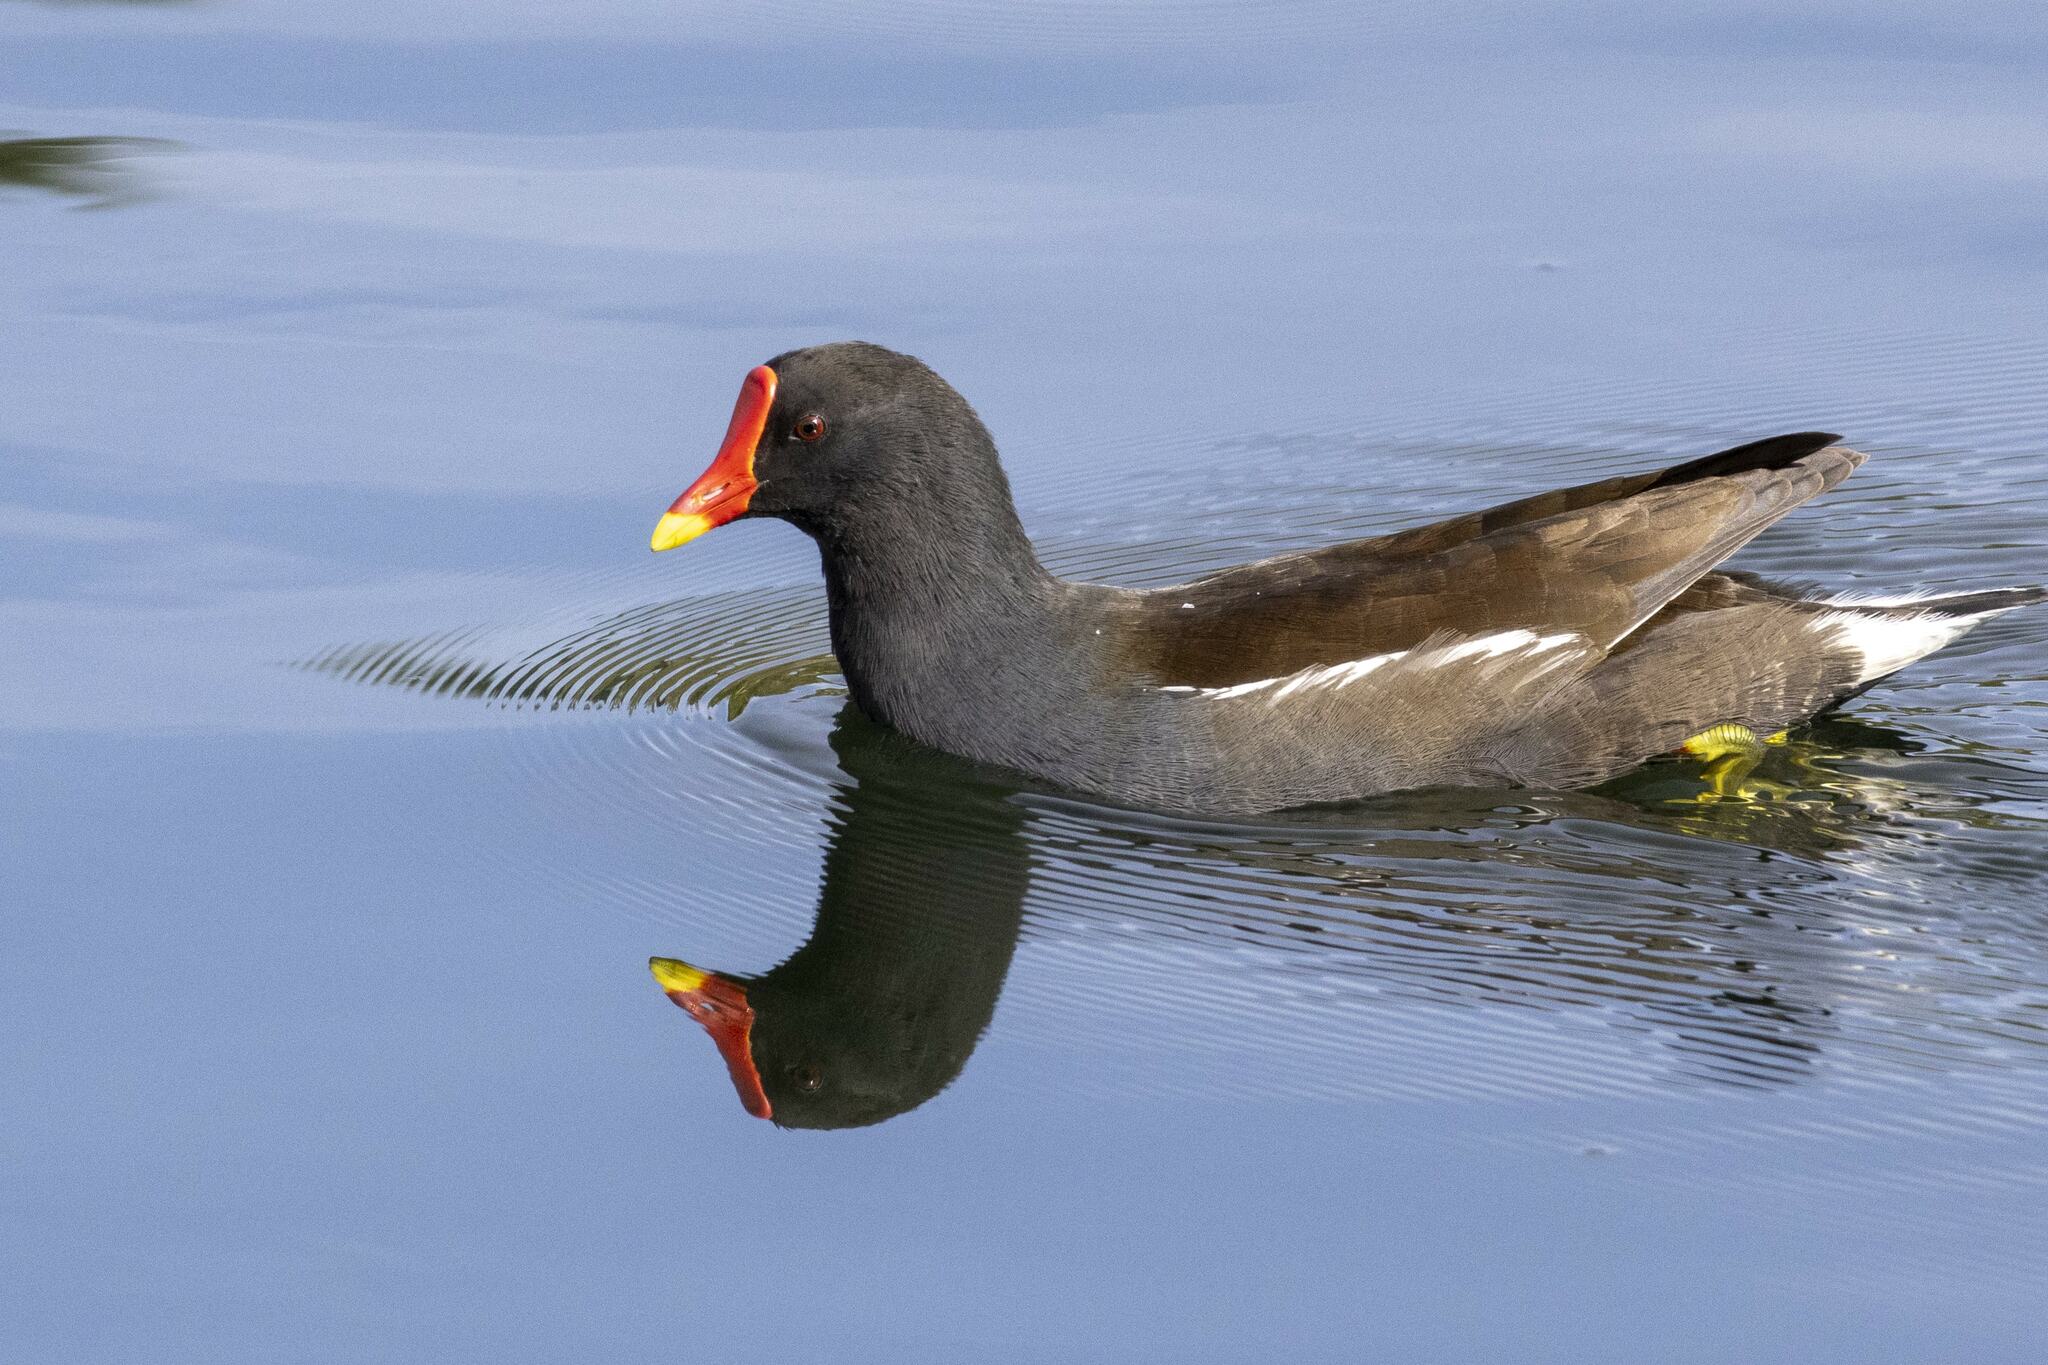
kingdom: Animalia
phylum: Chordata
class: Aves
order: Gruiformes
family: Rallidae
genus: Gallinula
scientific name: Gallinula chloropus
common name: Common moorhen
